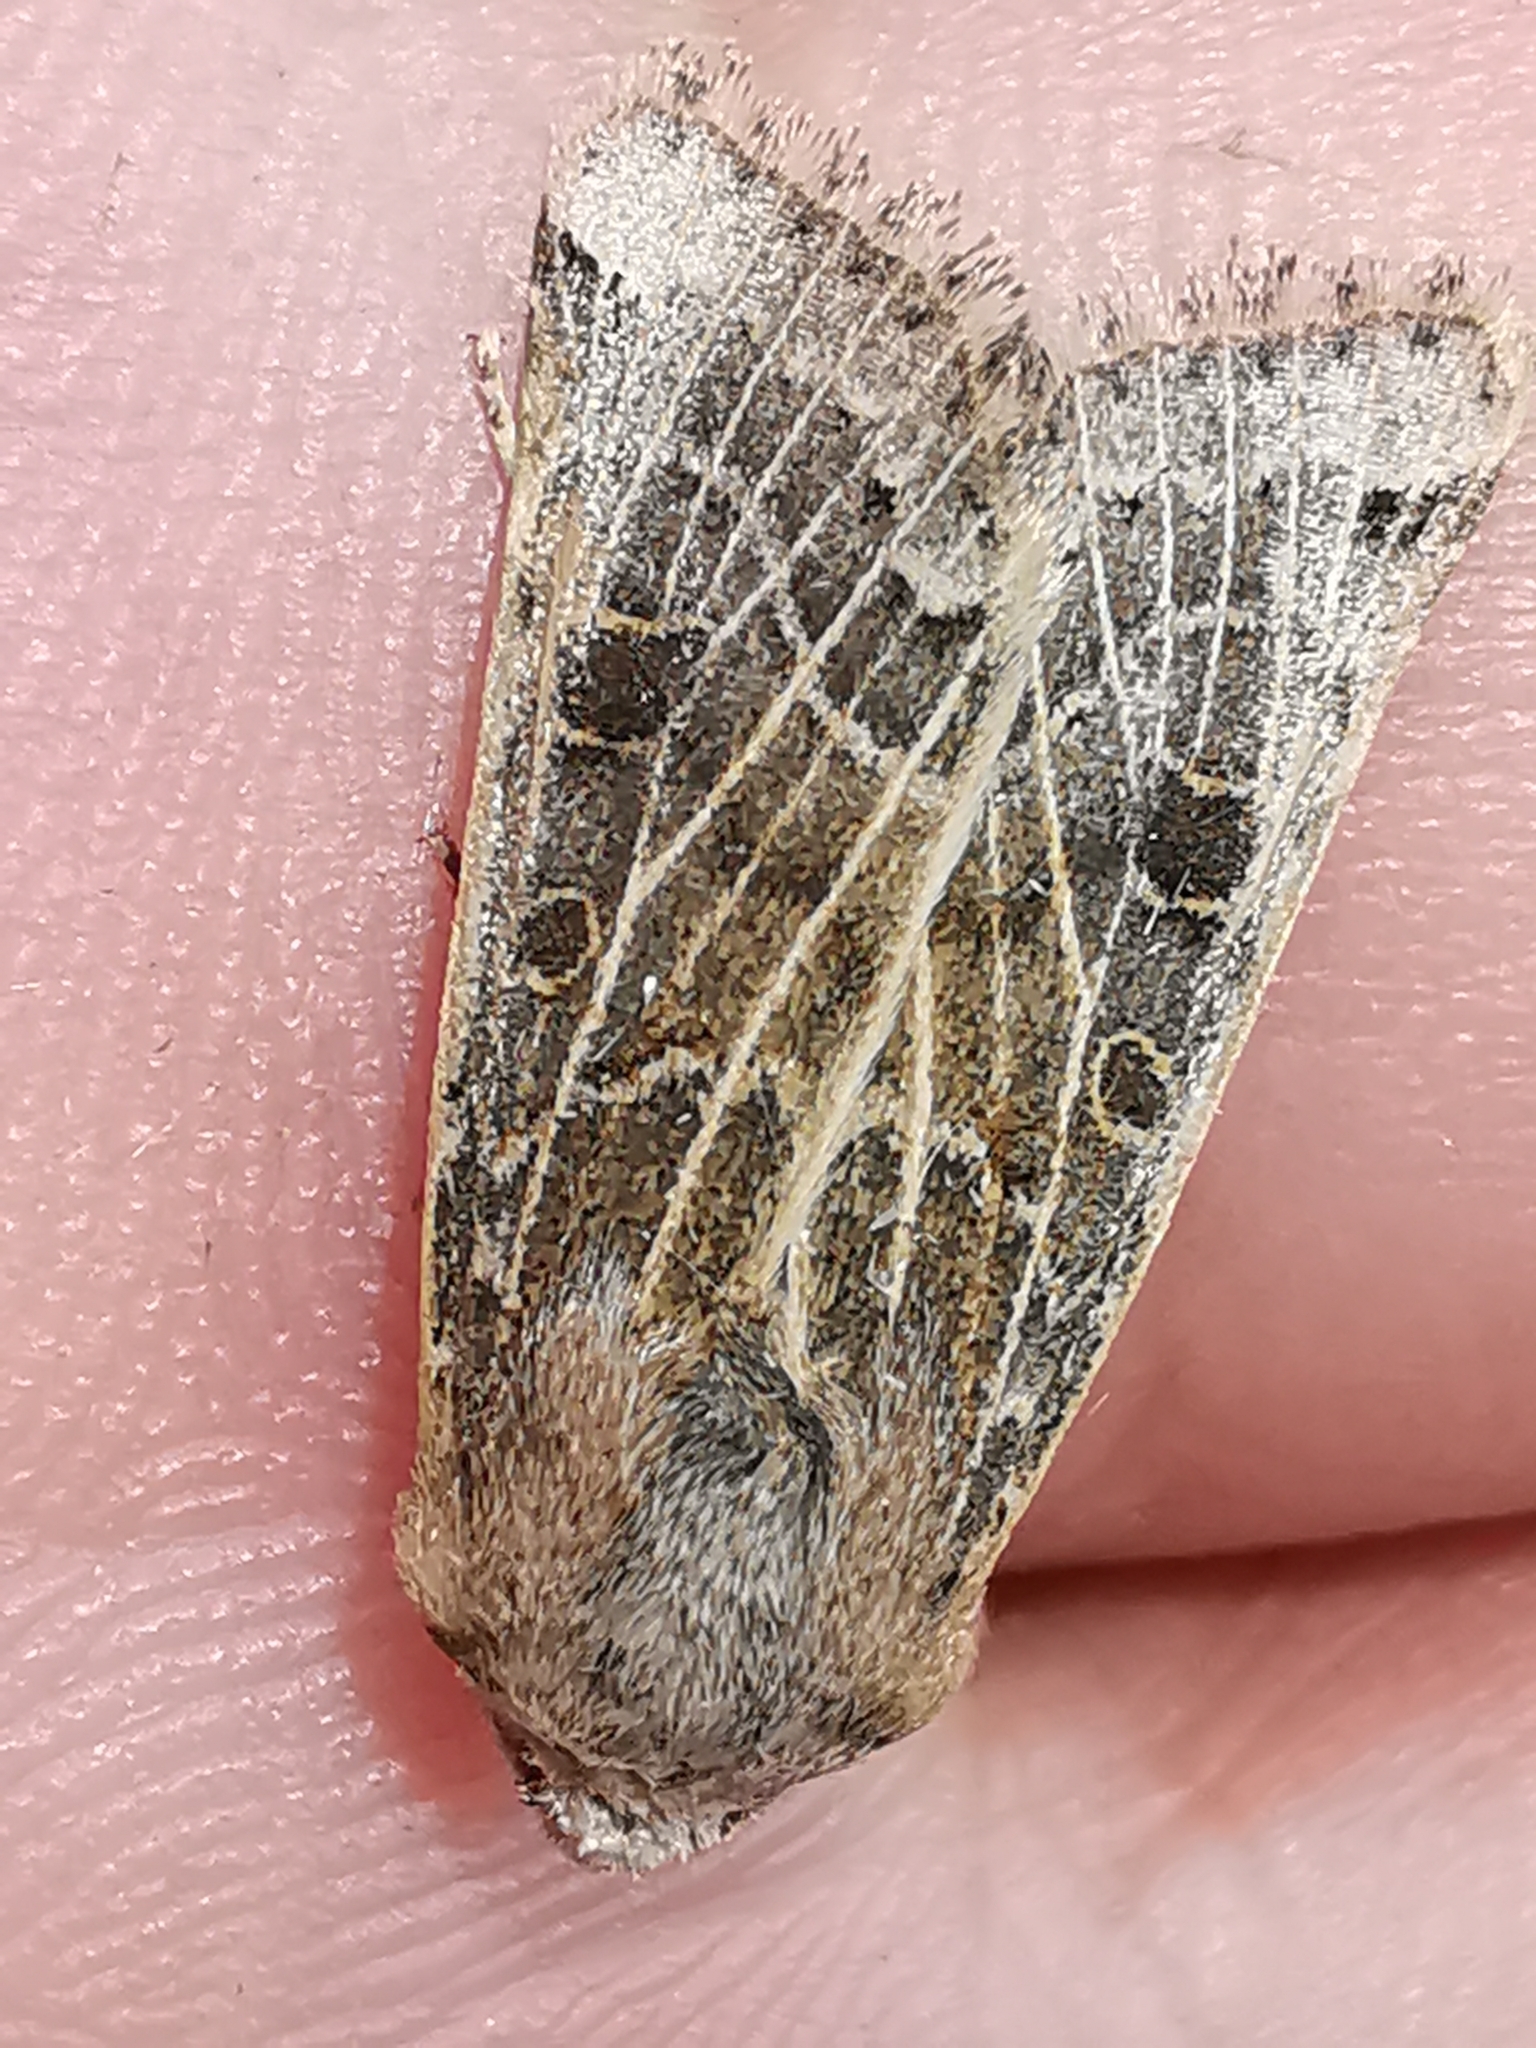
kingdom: Animalia
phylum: Arthropoda
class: Insecta
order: Lepidoptera
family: Noctuidae
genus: Agrochola
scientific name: Agrochola lunosa
